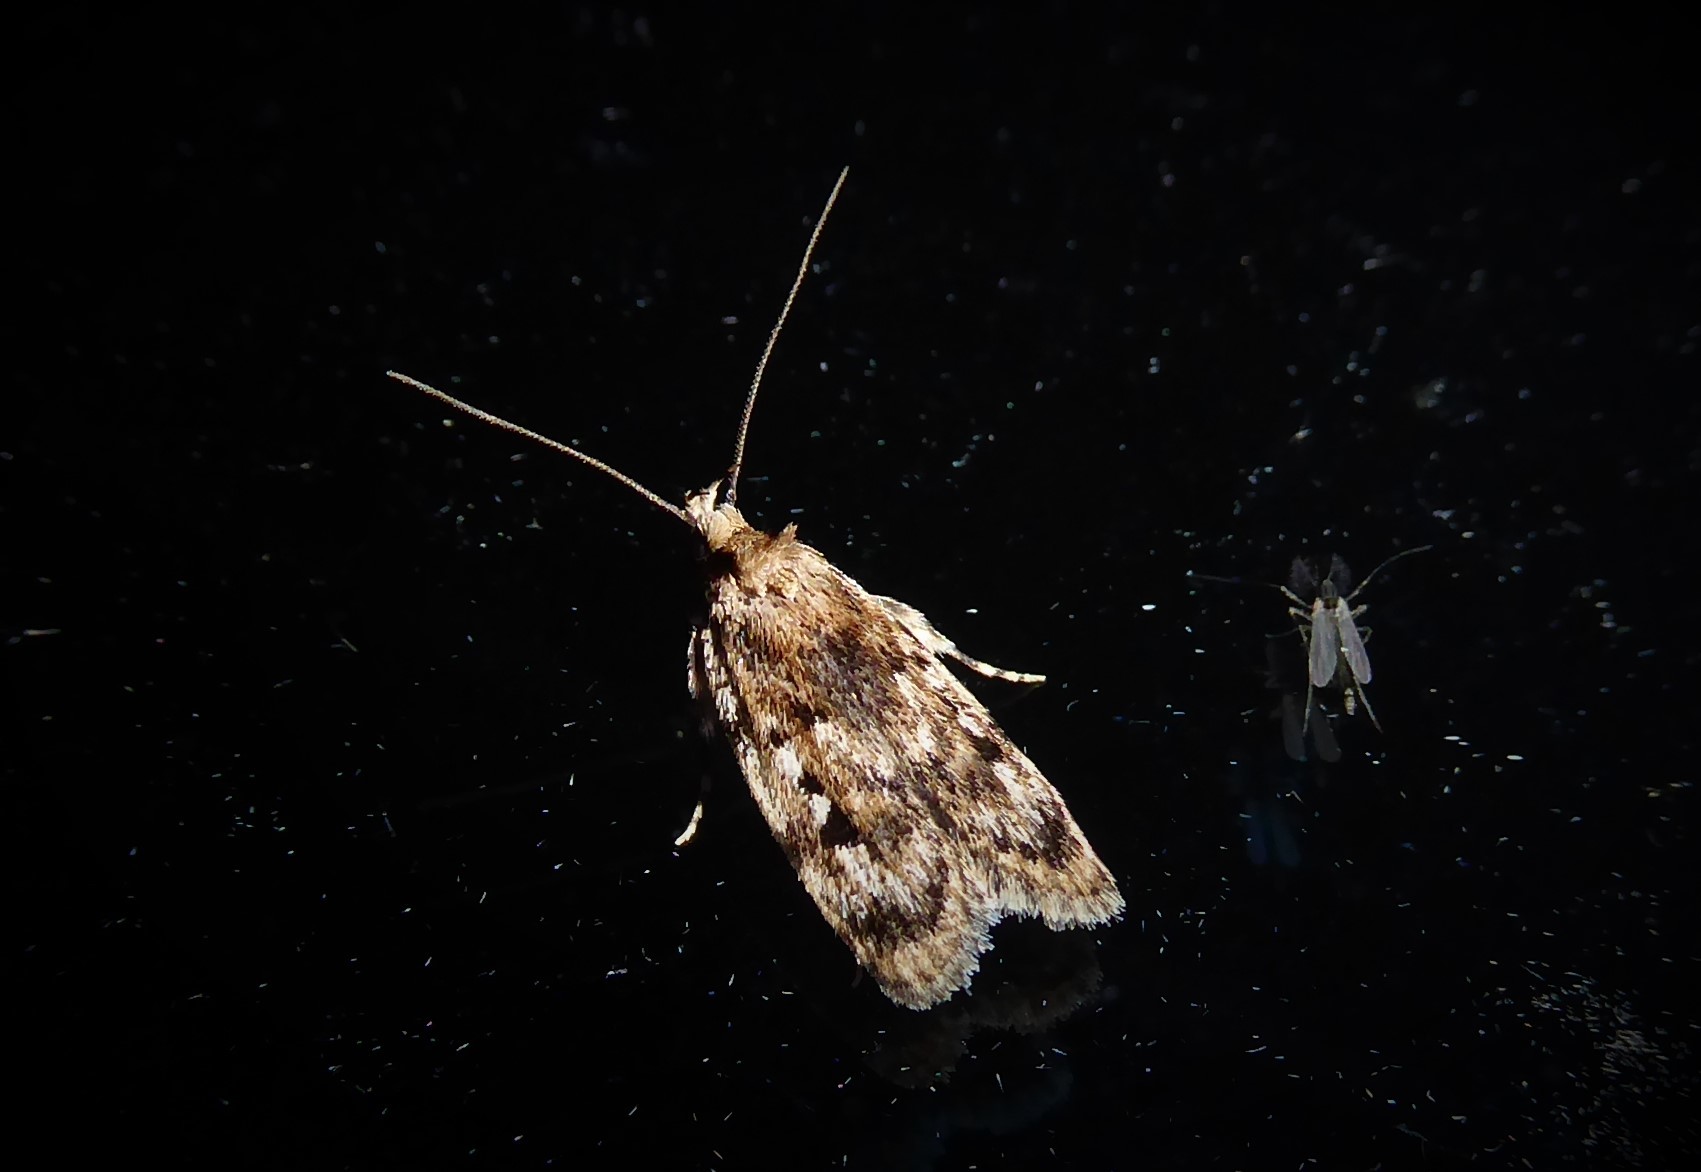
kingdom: Animalia
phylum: Arthropoda
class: Insecta
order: Lepidoptera
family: Oecophoridae
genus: Barea
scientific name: Barea exarcha
